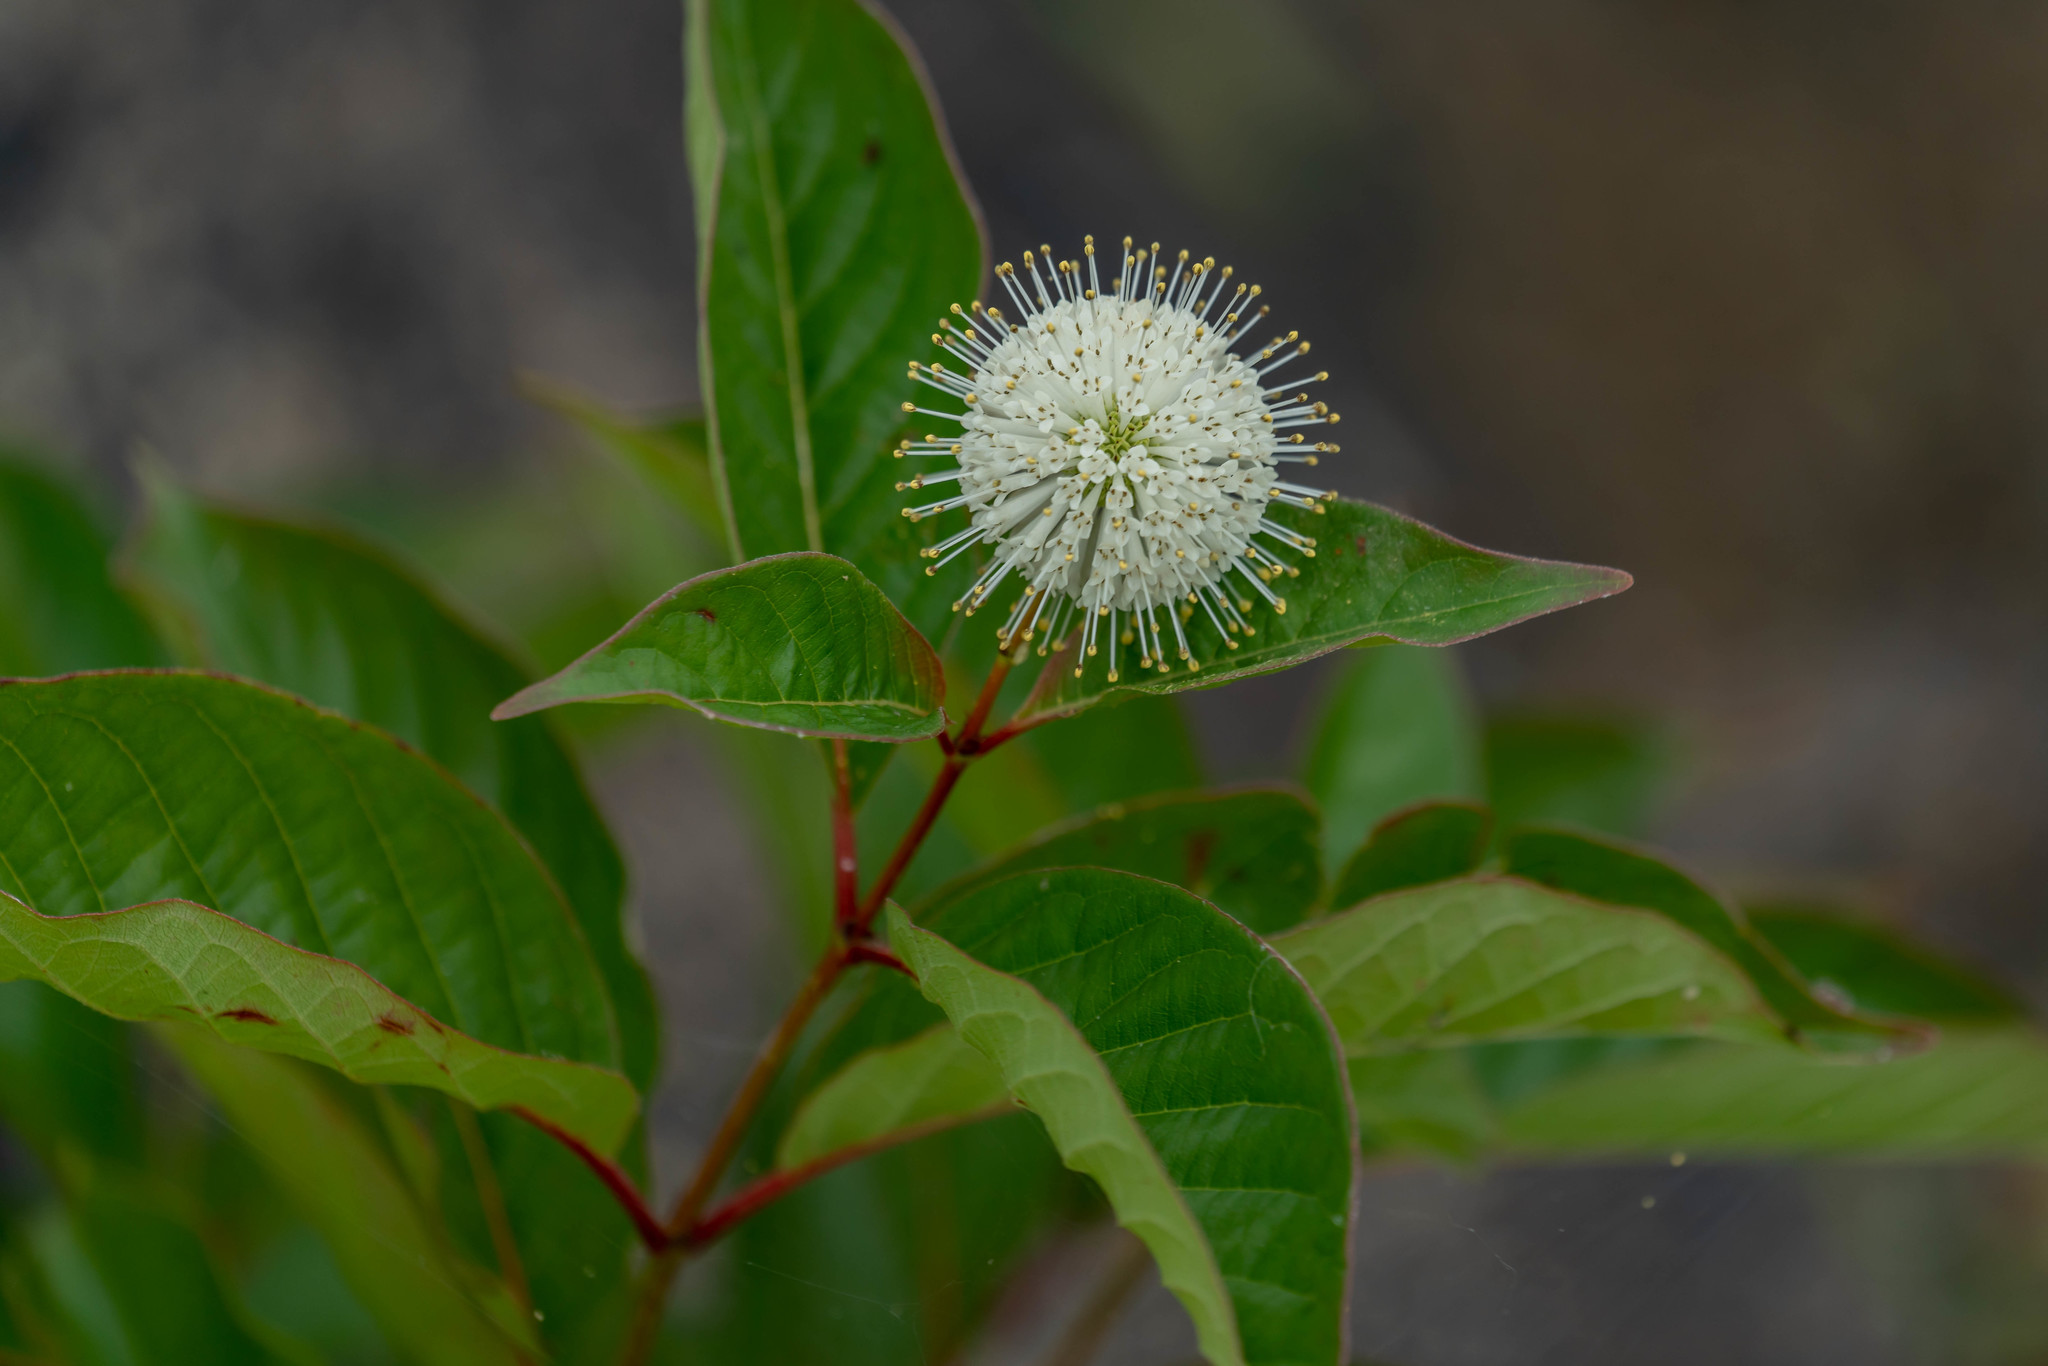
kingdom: Plantae
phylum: Tracheophyta
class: Magnoliopsida
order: Gentianales
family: Rubiaceae
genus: Cephalanthus
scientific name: Cephalanthus occidentalis
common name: Button-willow
